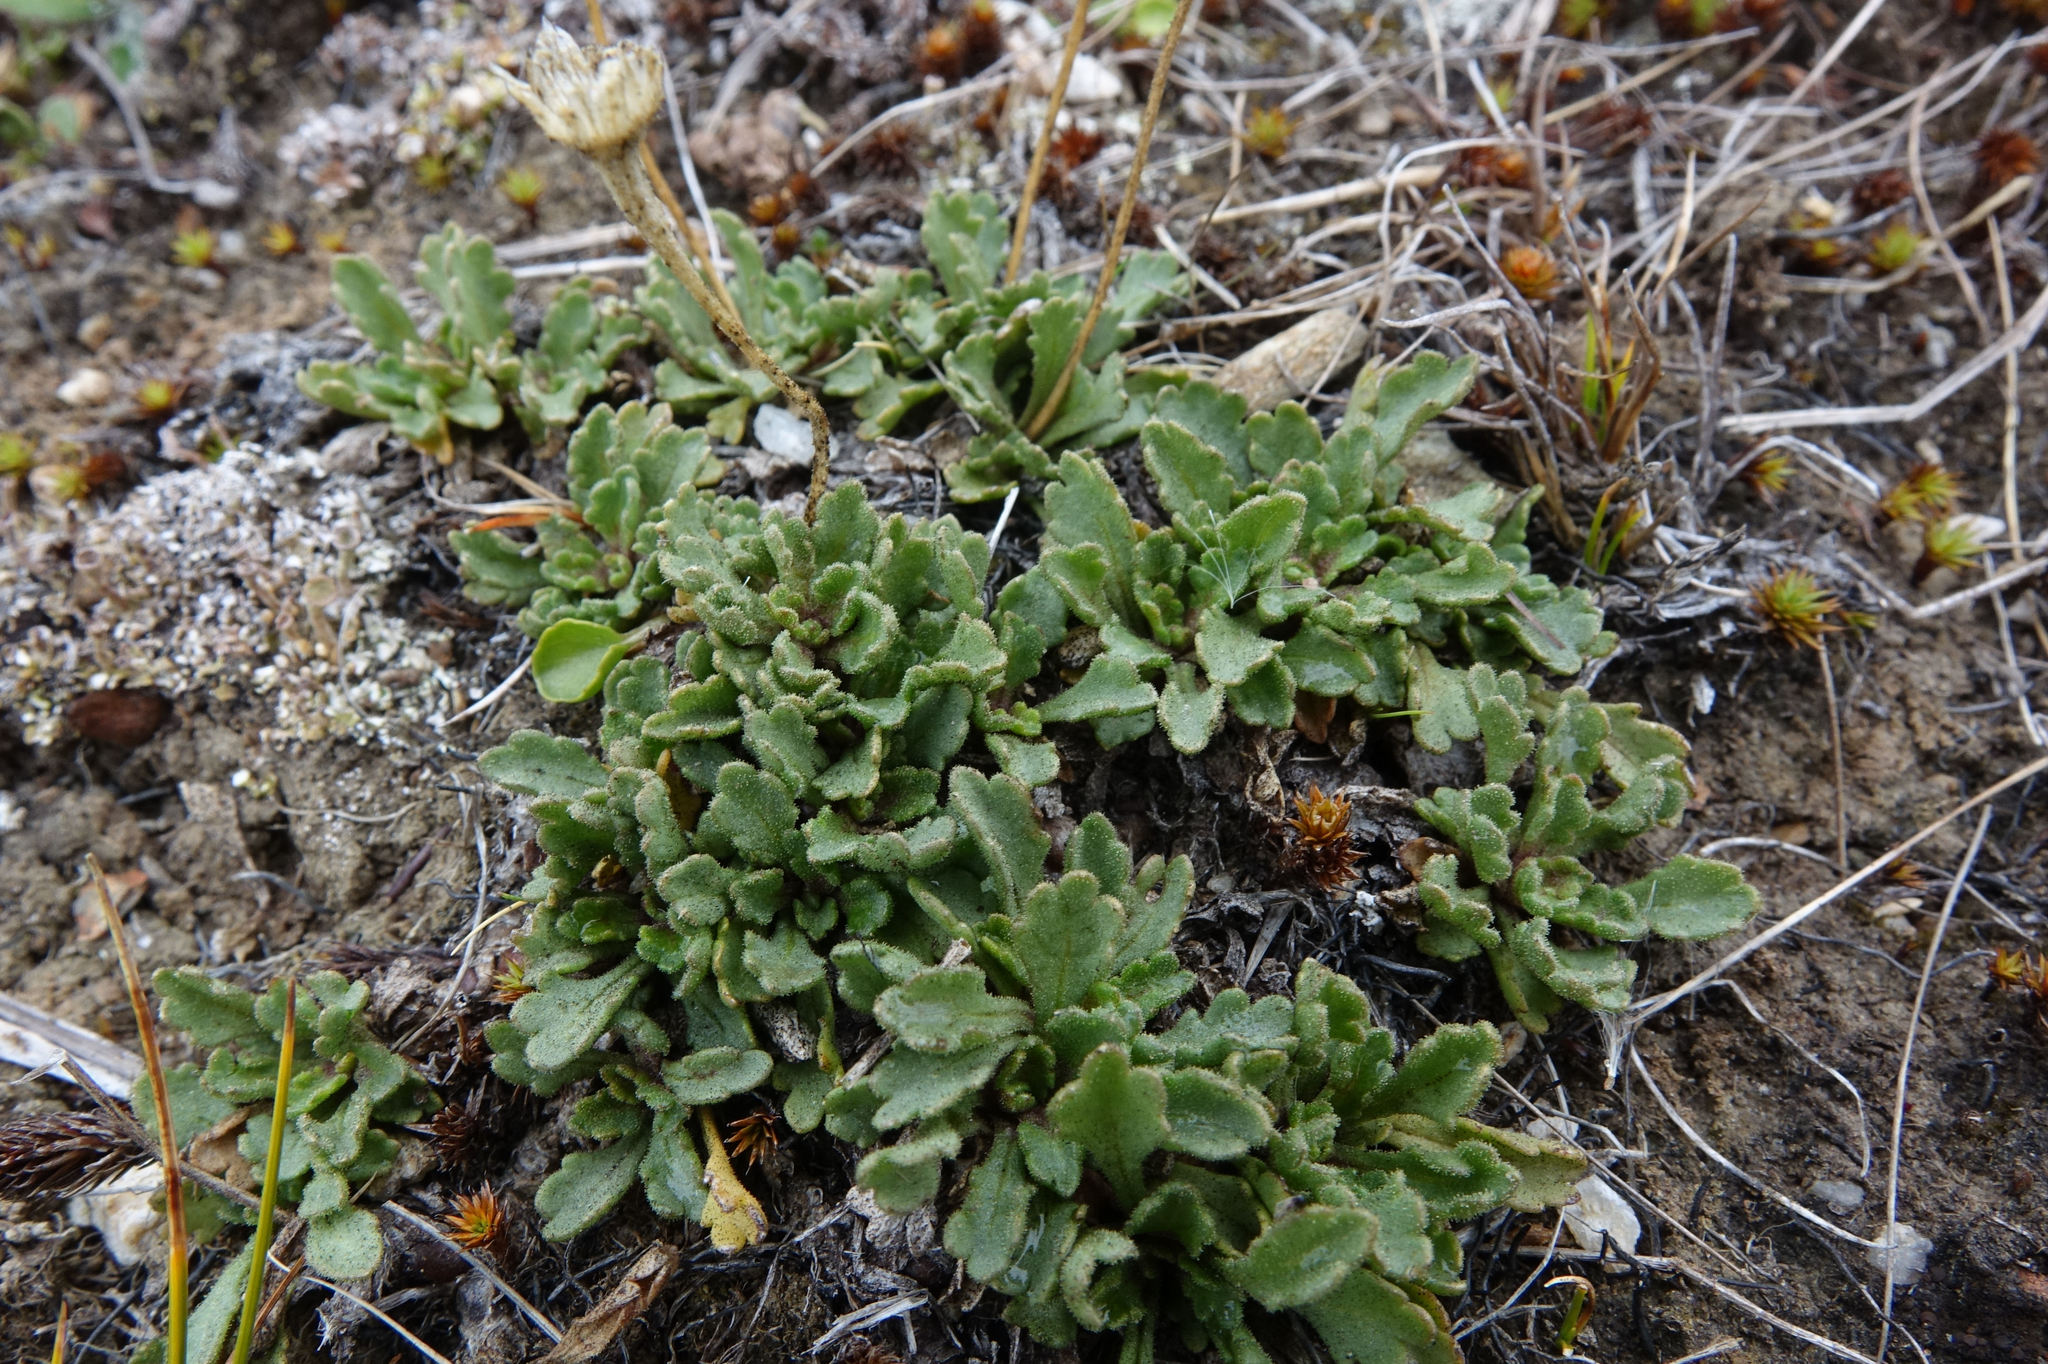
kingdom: Plantae
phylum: Tracheophyta
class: Magnoliopsida
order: Asterales
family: Asteraceae
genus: Brachyscome
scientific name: Brachyscome montana
